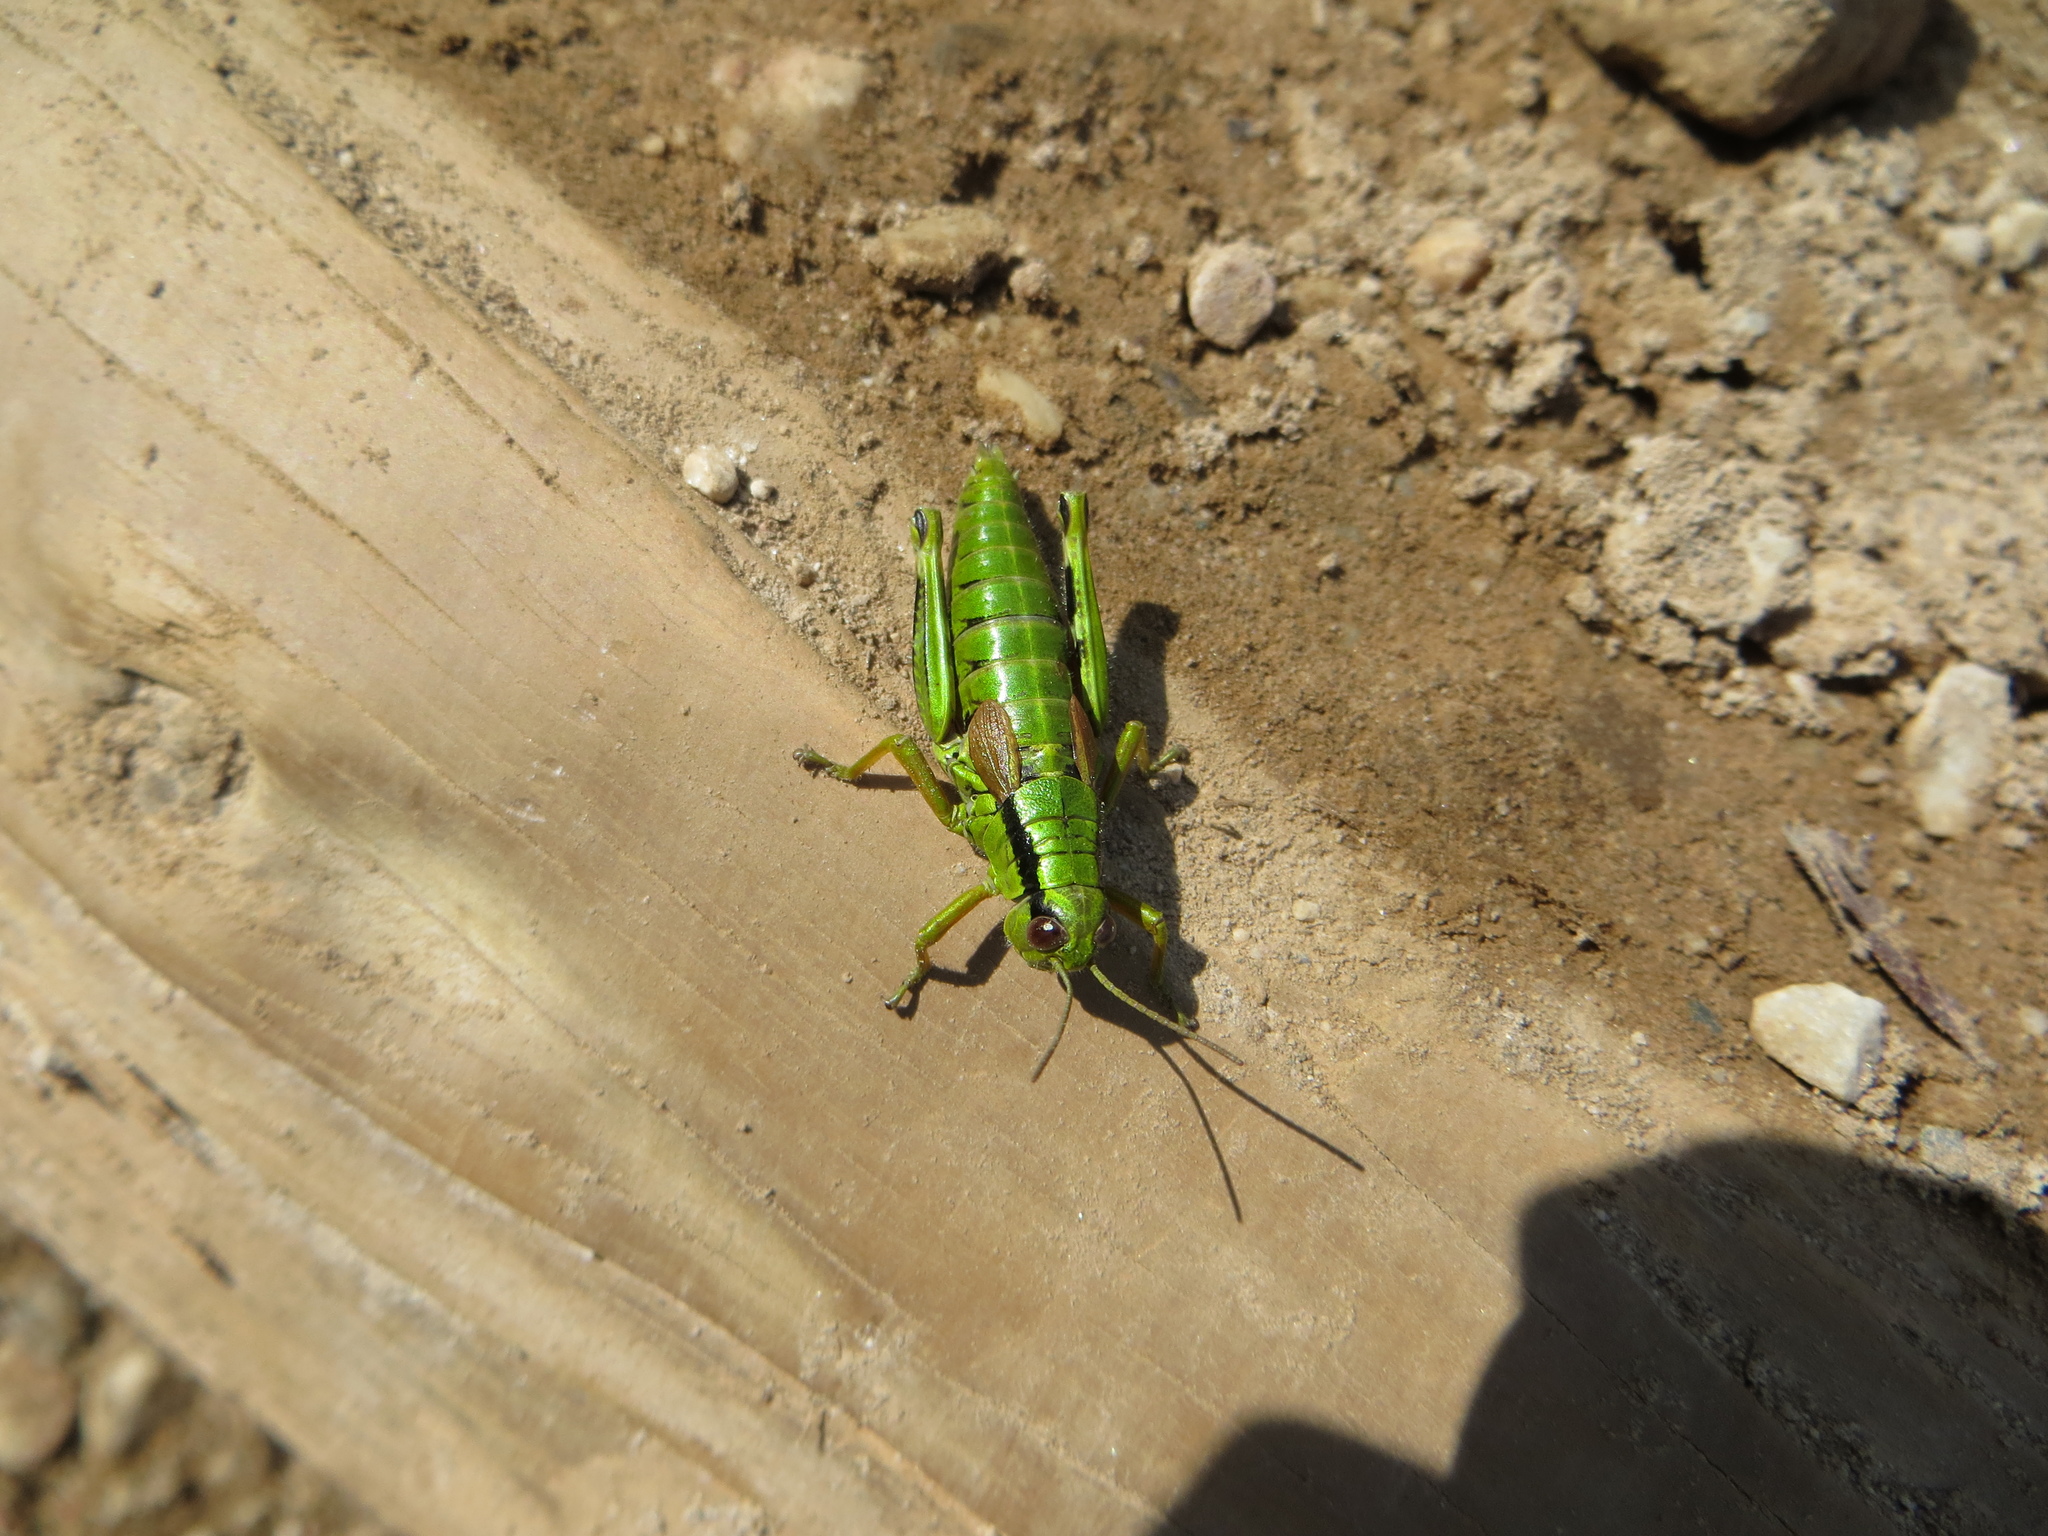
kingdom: Animalia
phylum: Arthropoda
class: Insecta
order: Orthoptera
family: Acrididae
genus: Miramella
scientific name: Miramella alpina
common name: Green mountain grasshopper
